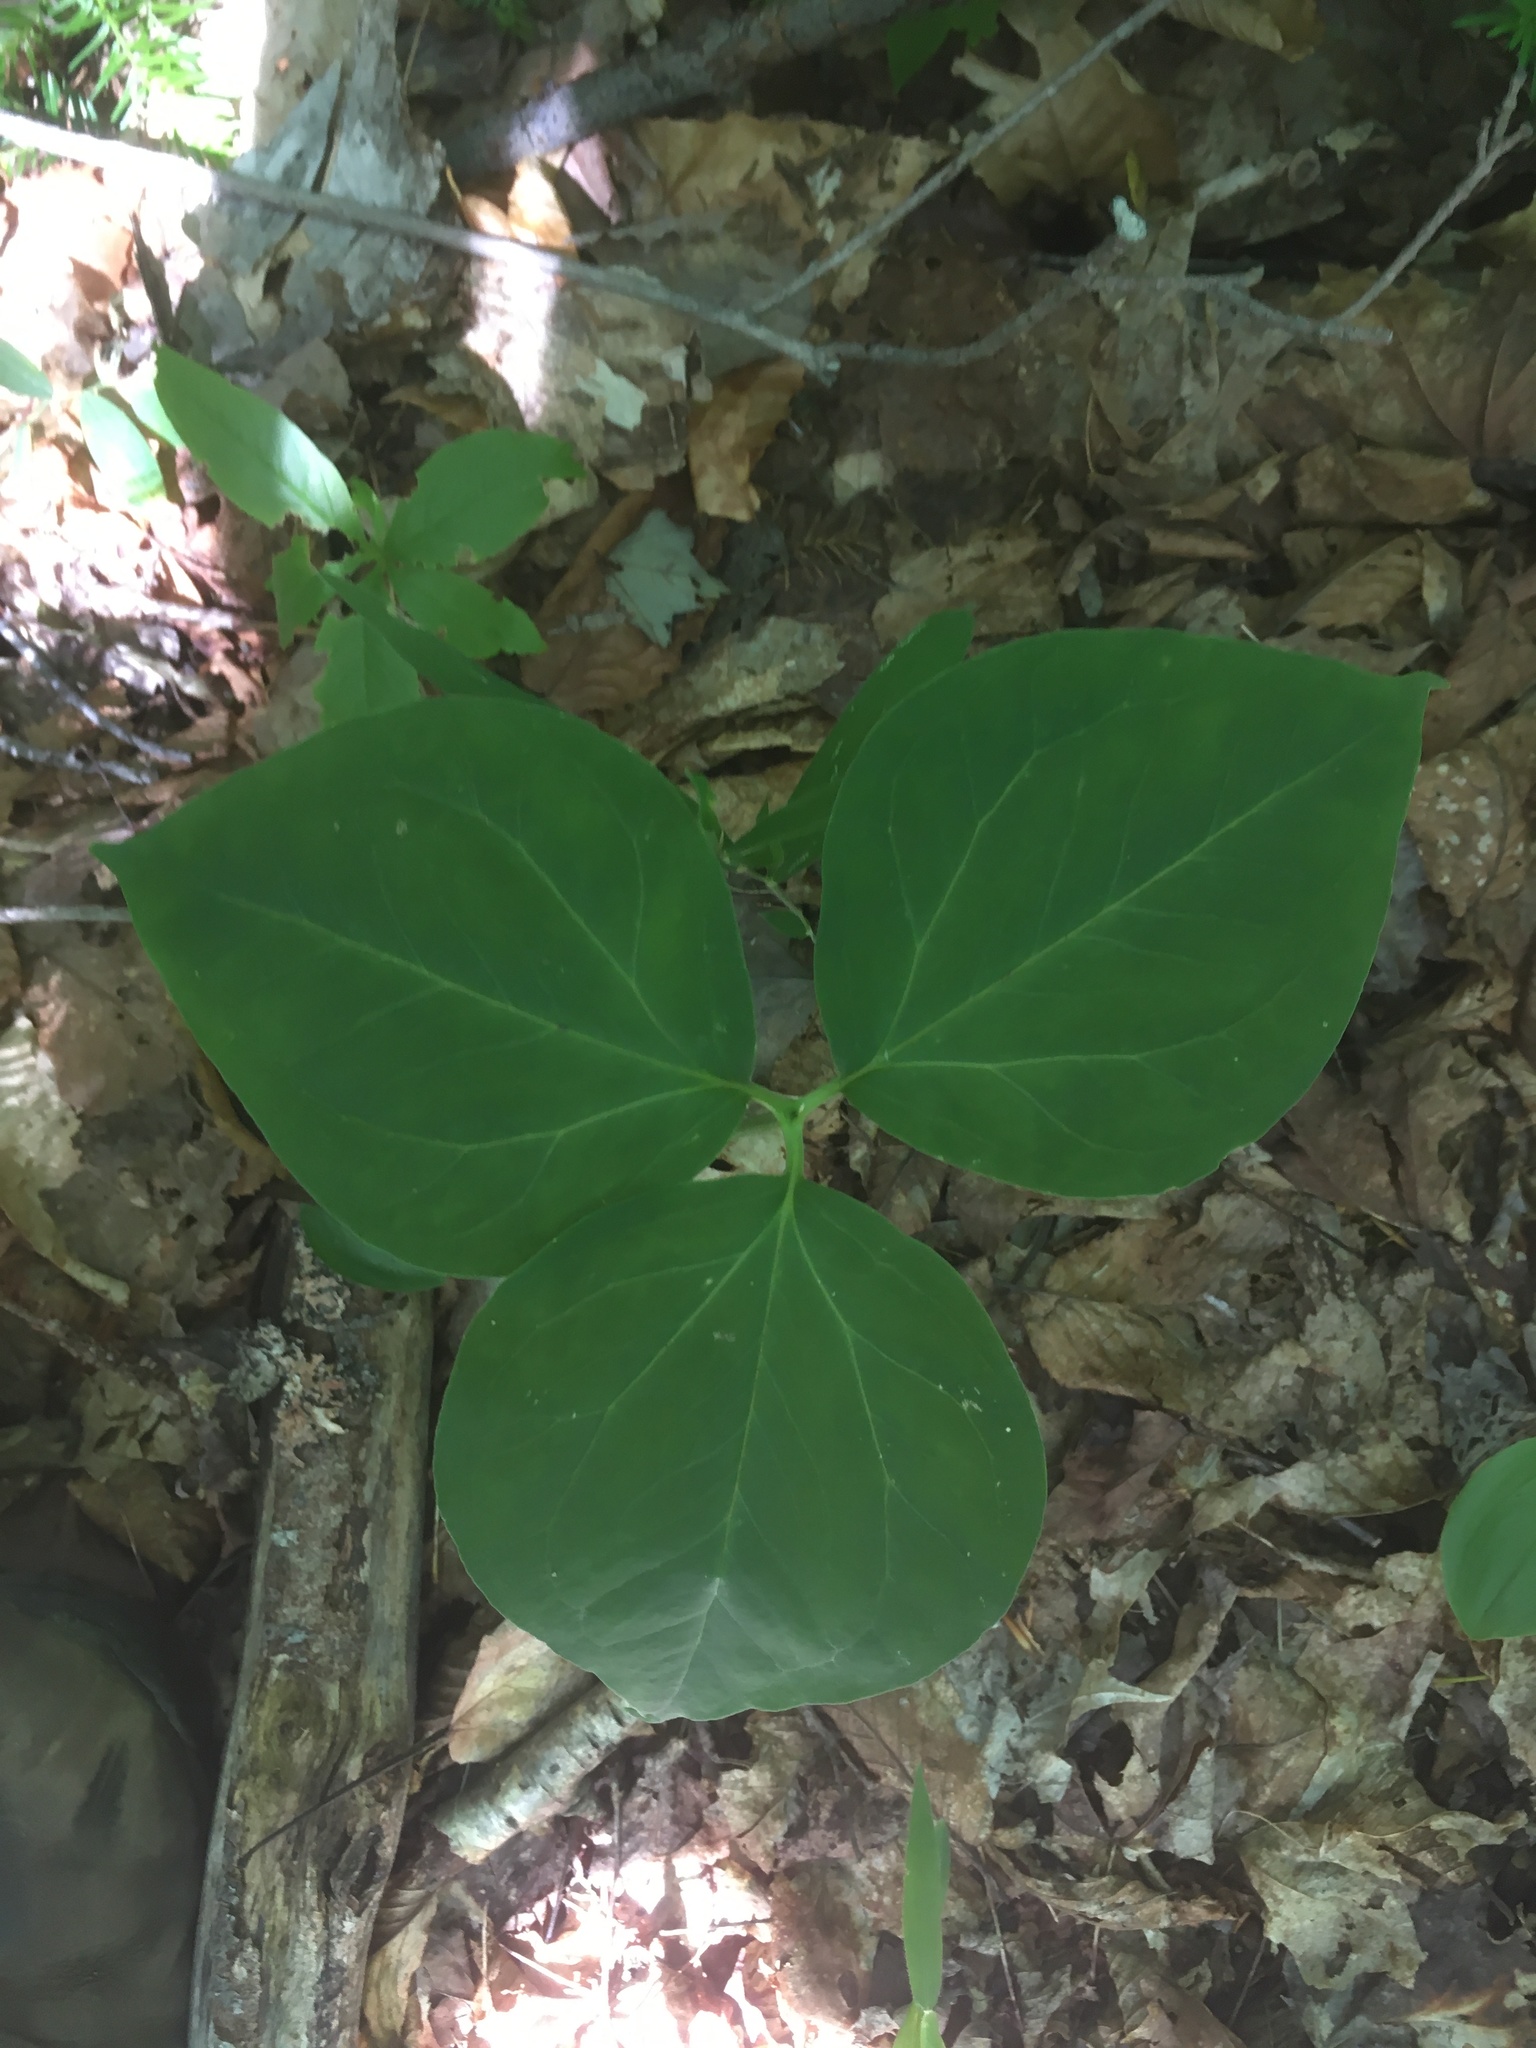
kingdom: Plantae
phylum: Tracheophyta
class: Liliopsida
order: Liliales
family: Melanthiaceae
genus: Trillium
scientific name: Trillium undulatum
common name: Paint trillium
